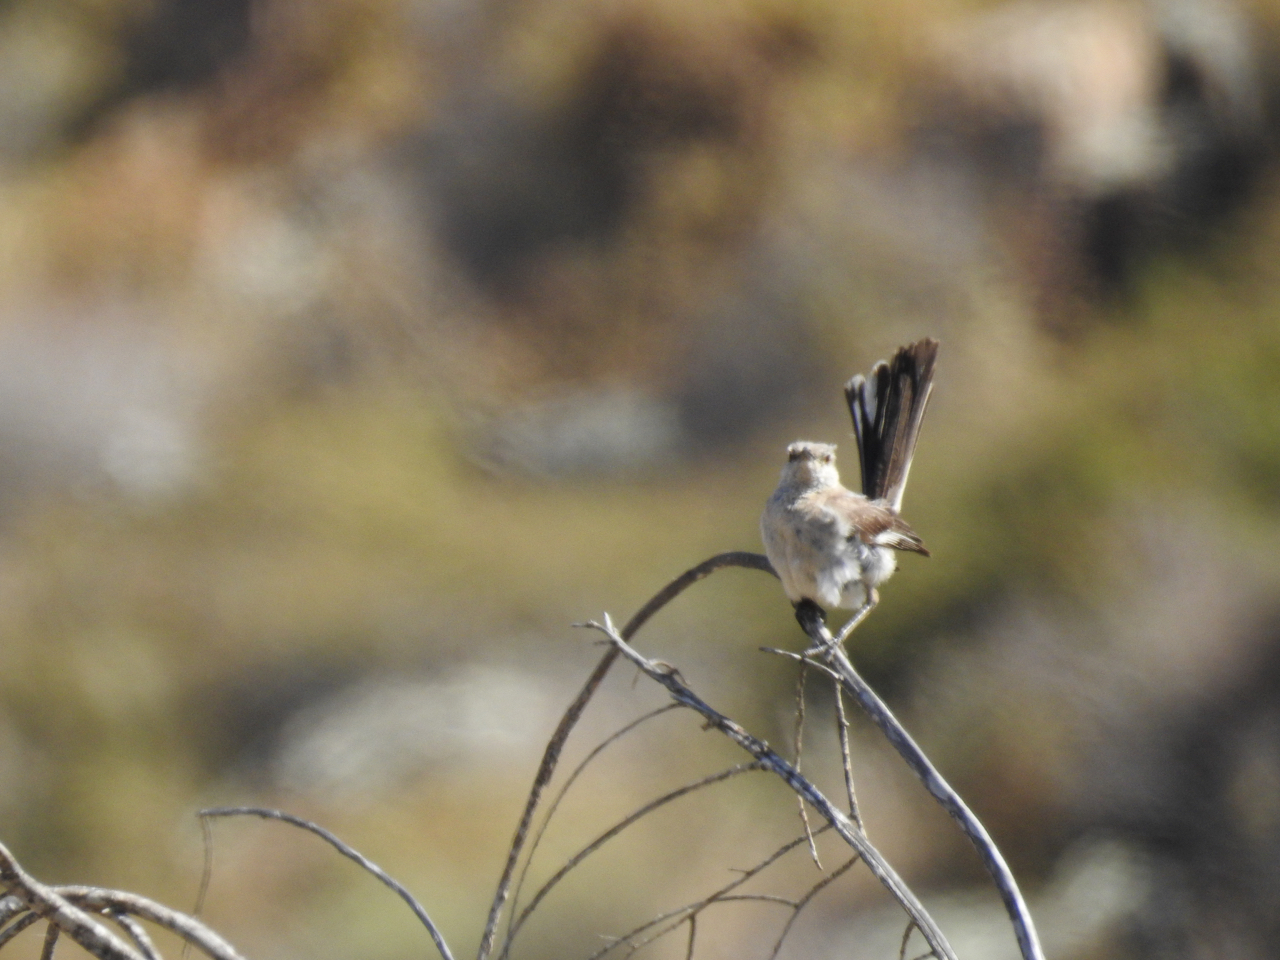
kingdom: Animalia
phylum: Chordata
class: Aves
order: Passeriformes
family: Mimidae
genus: Mimus
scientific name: Mimus polyglottos
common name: Northern mockingbird
